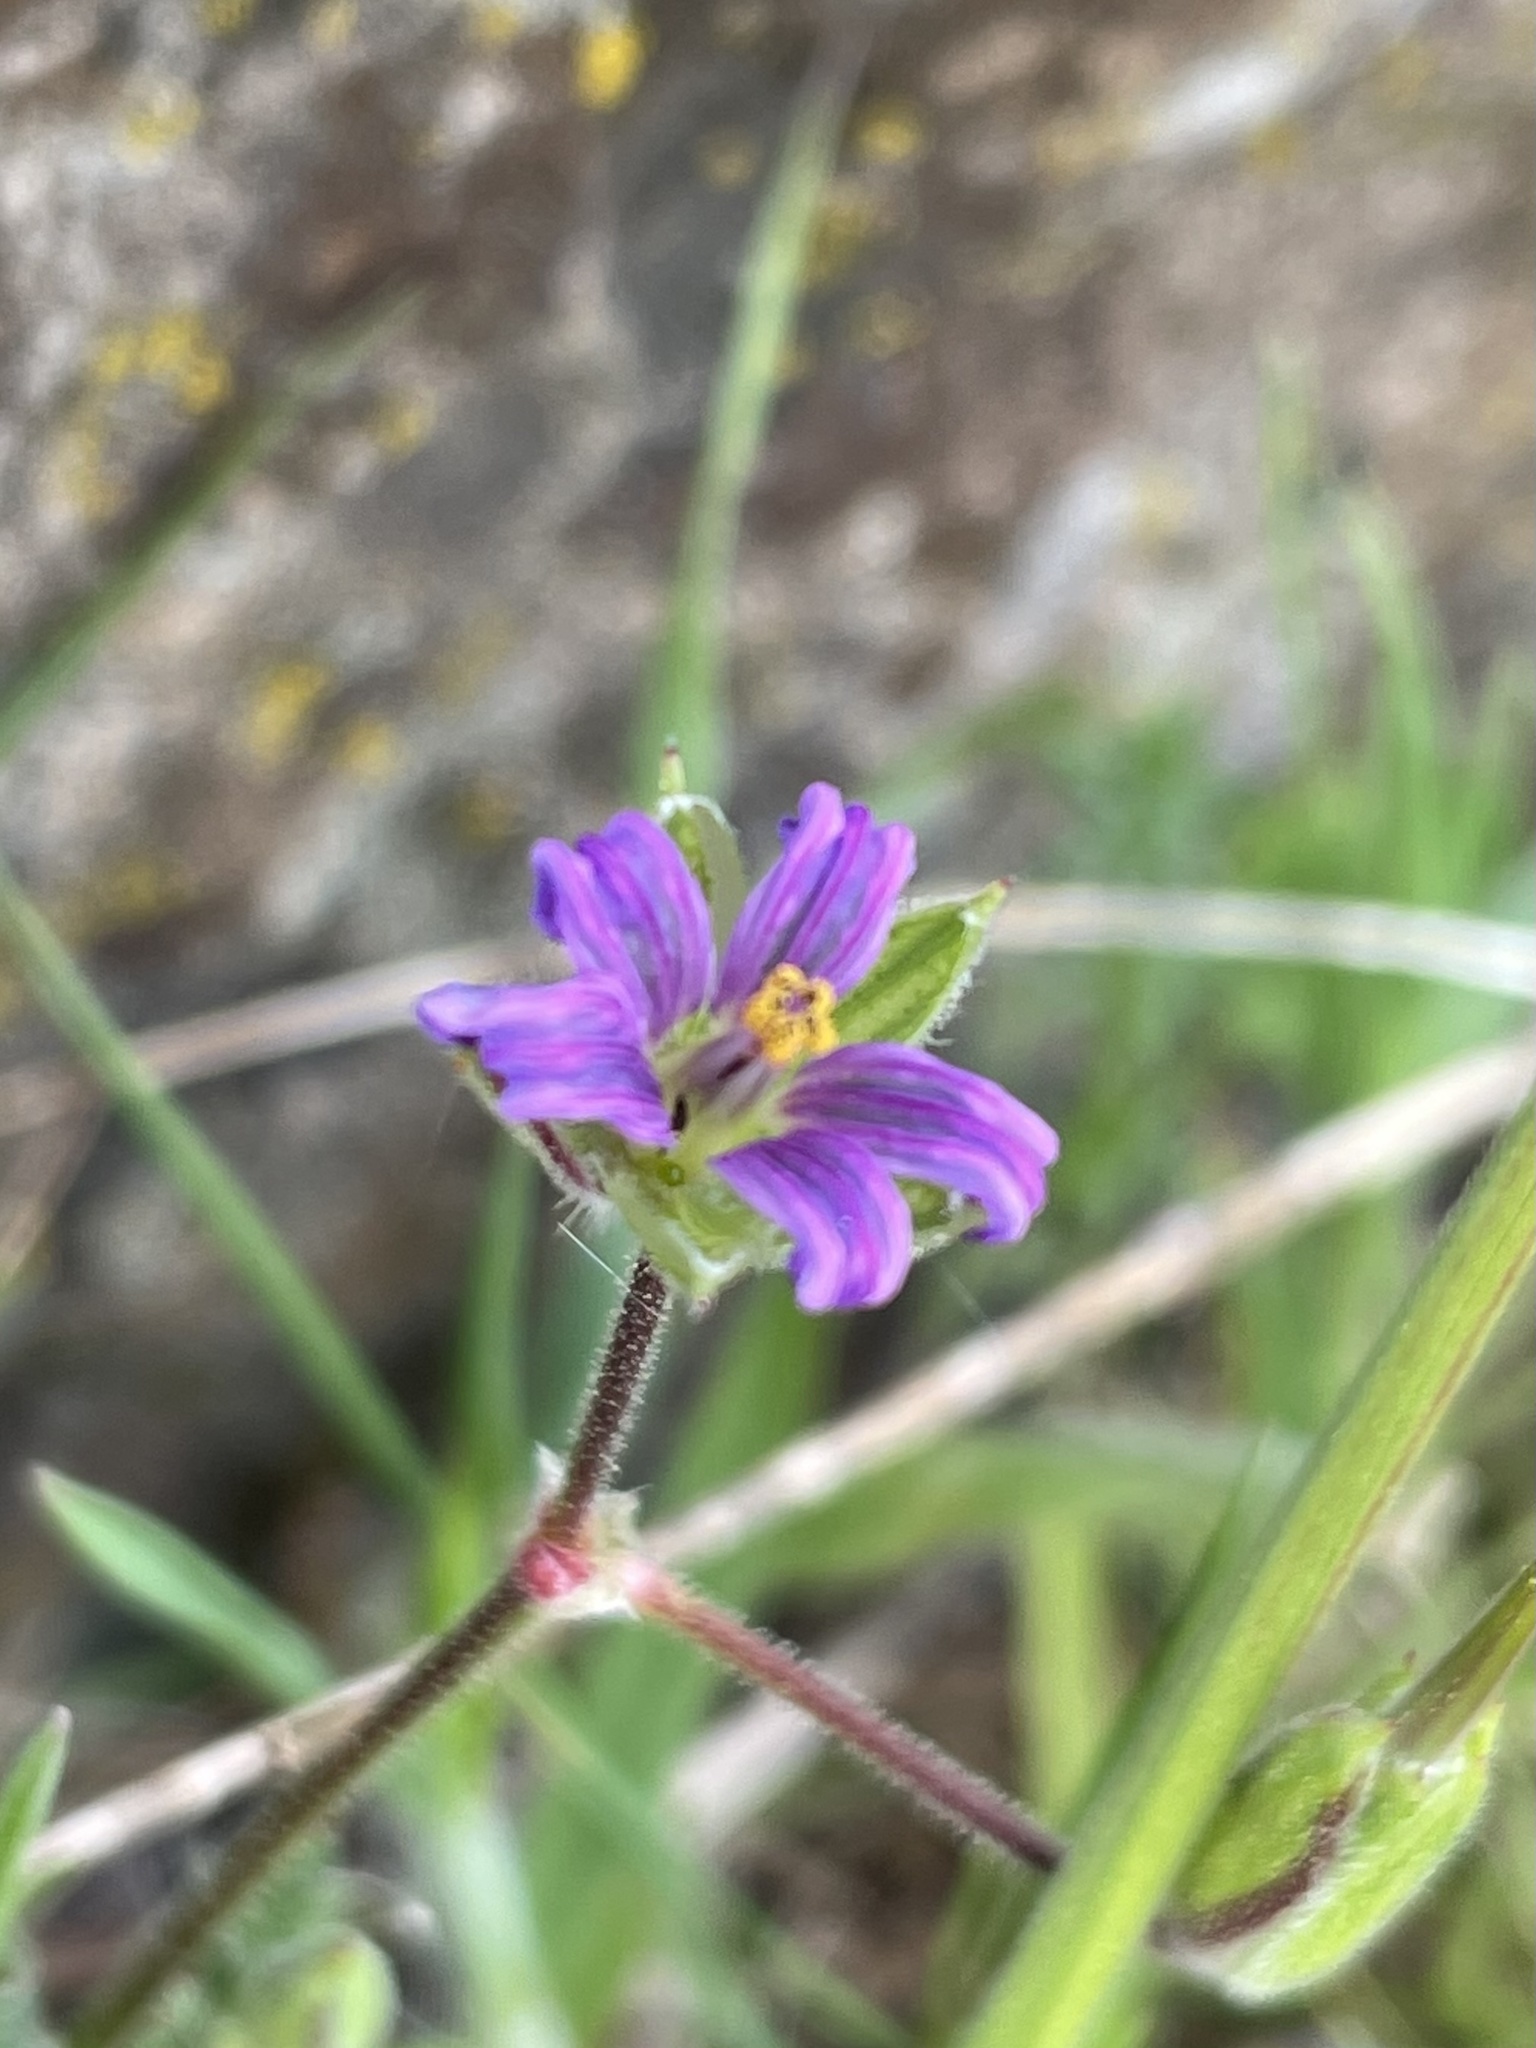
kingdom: Plantae
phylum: Tracheophyta
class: Magnoliopsida
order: Geraniales
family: Geraniaceae
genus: Erodium
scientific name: Erodium botrys
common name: Mediterranean stork's-bill
